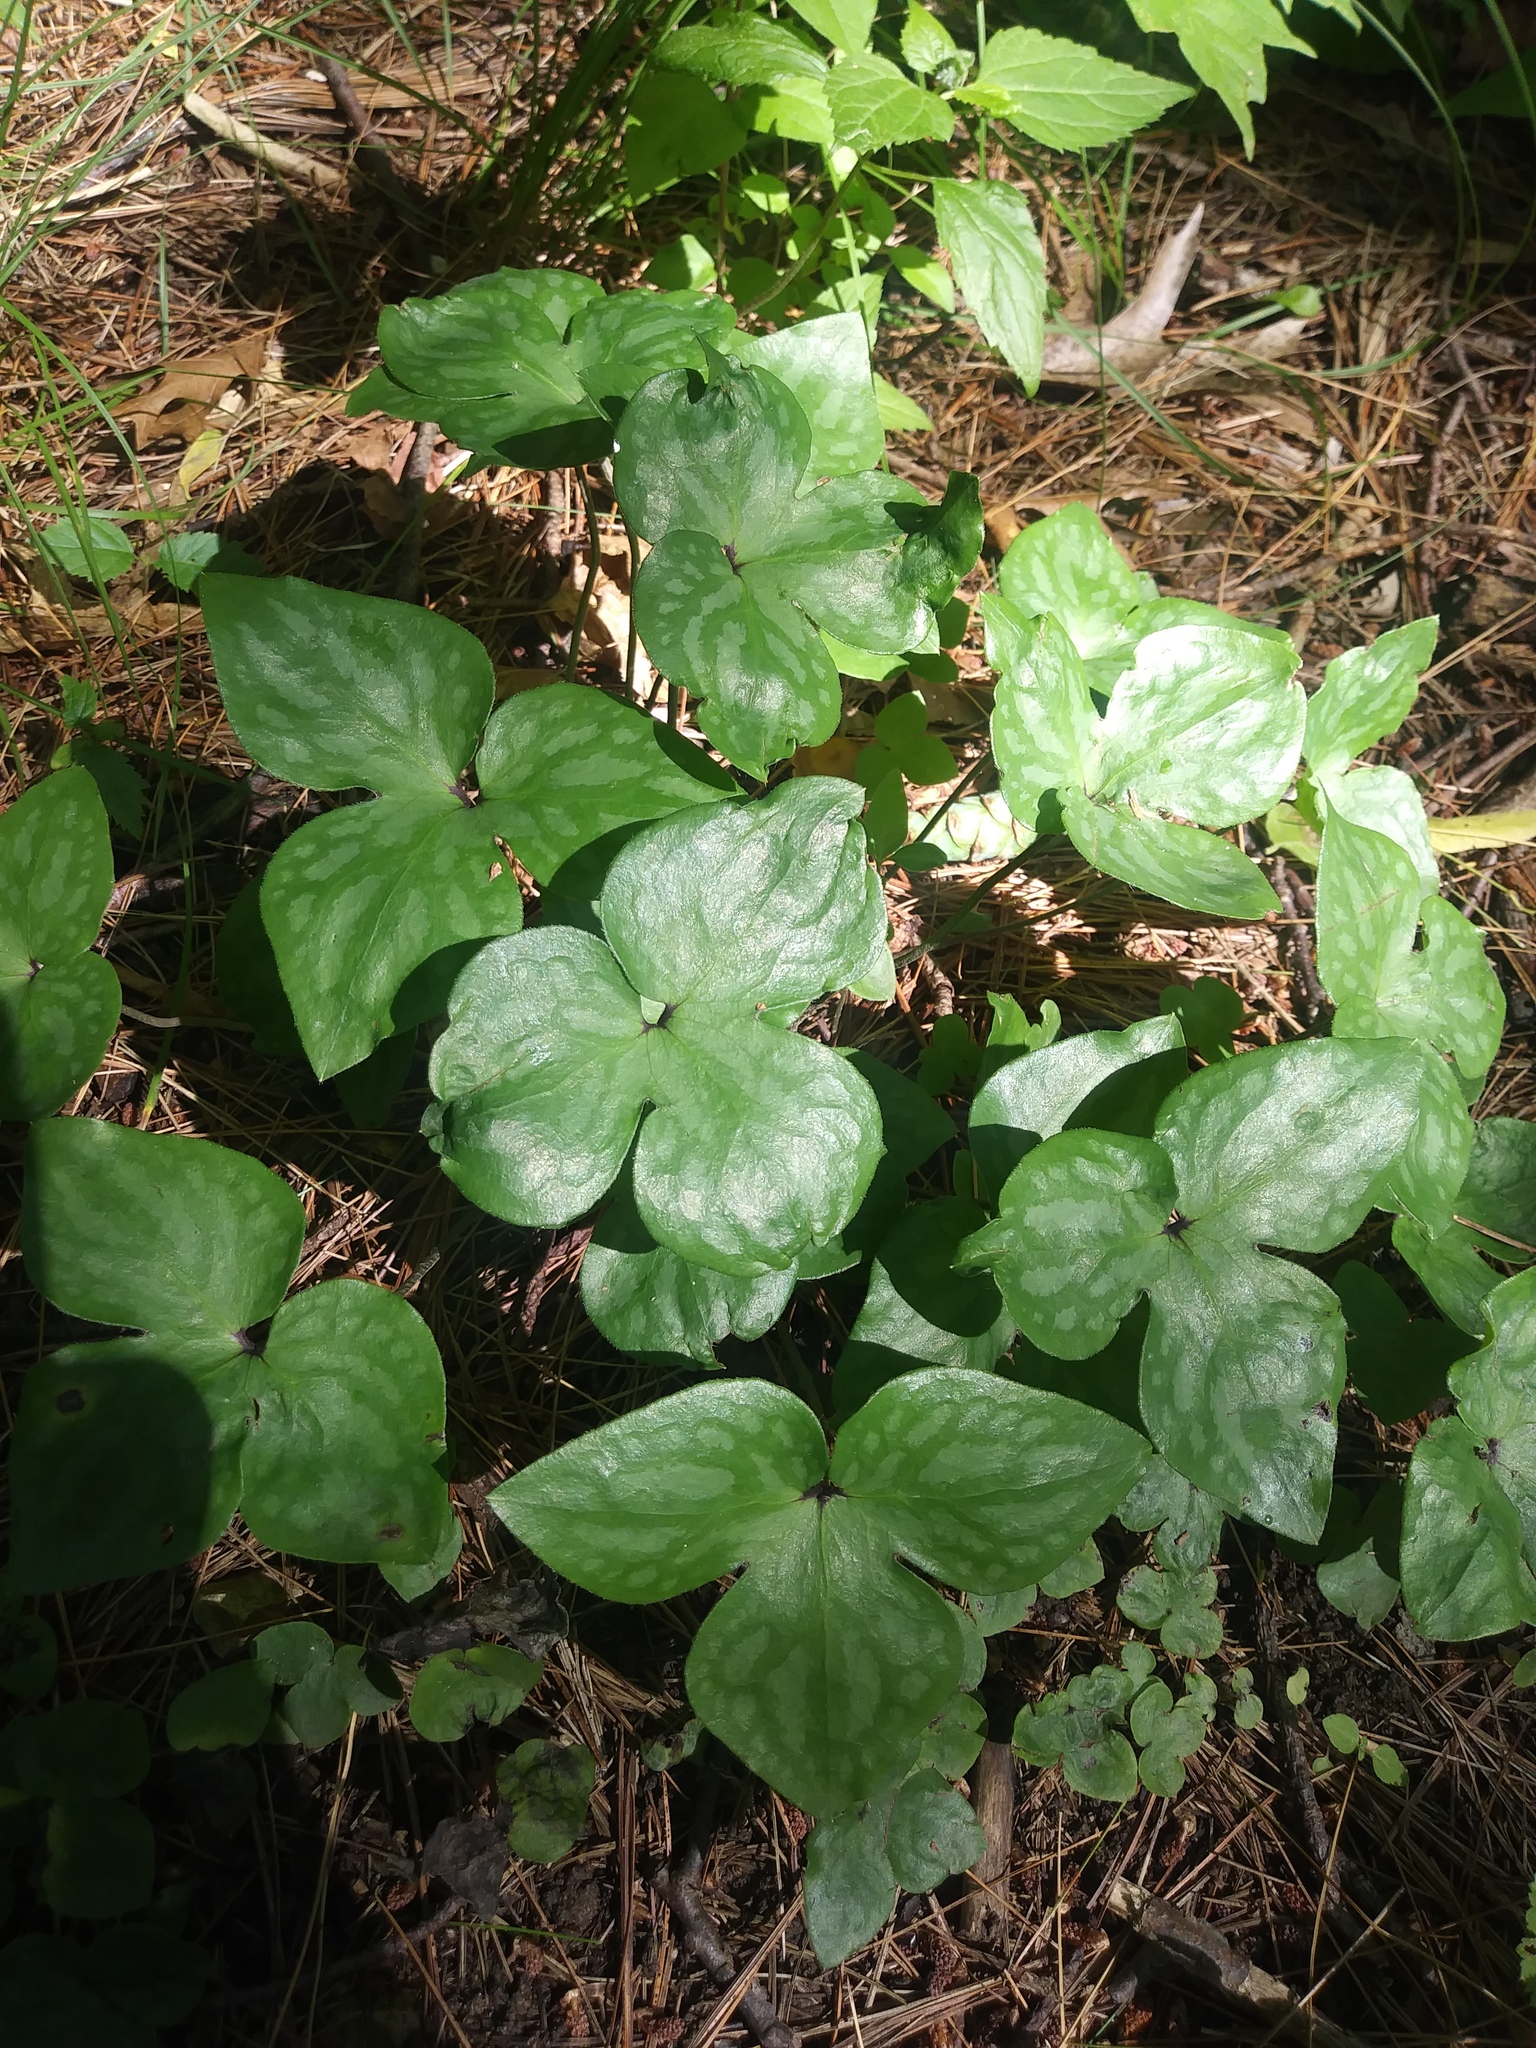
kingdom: Plantae
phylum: Tracheophyta
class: Magnoliopsida
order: Ranunculales
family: Ranunculaceae
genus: Hepatica
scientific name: Hepatica acutiloba
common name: Sharp-lobed hepatica
